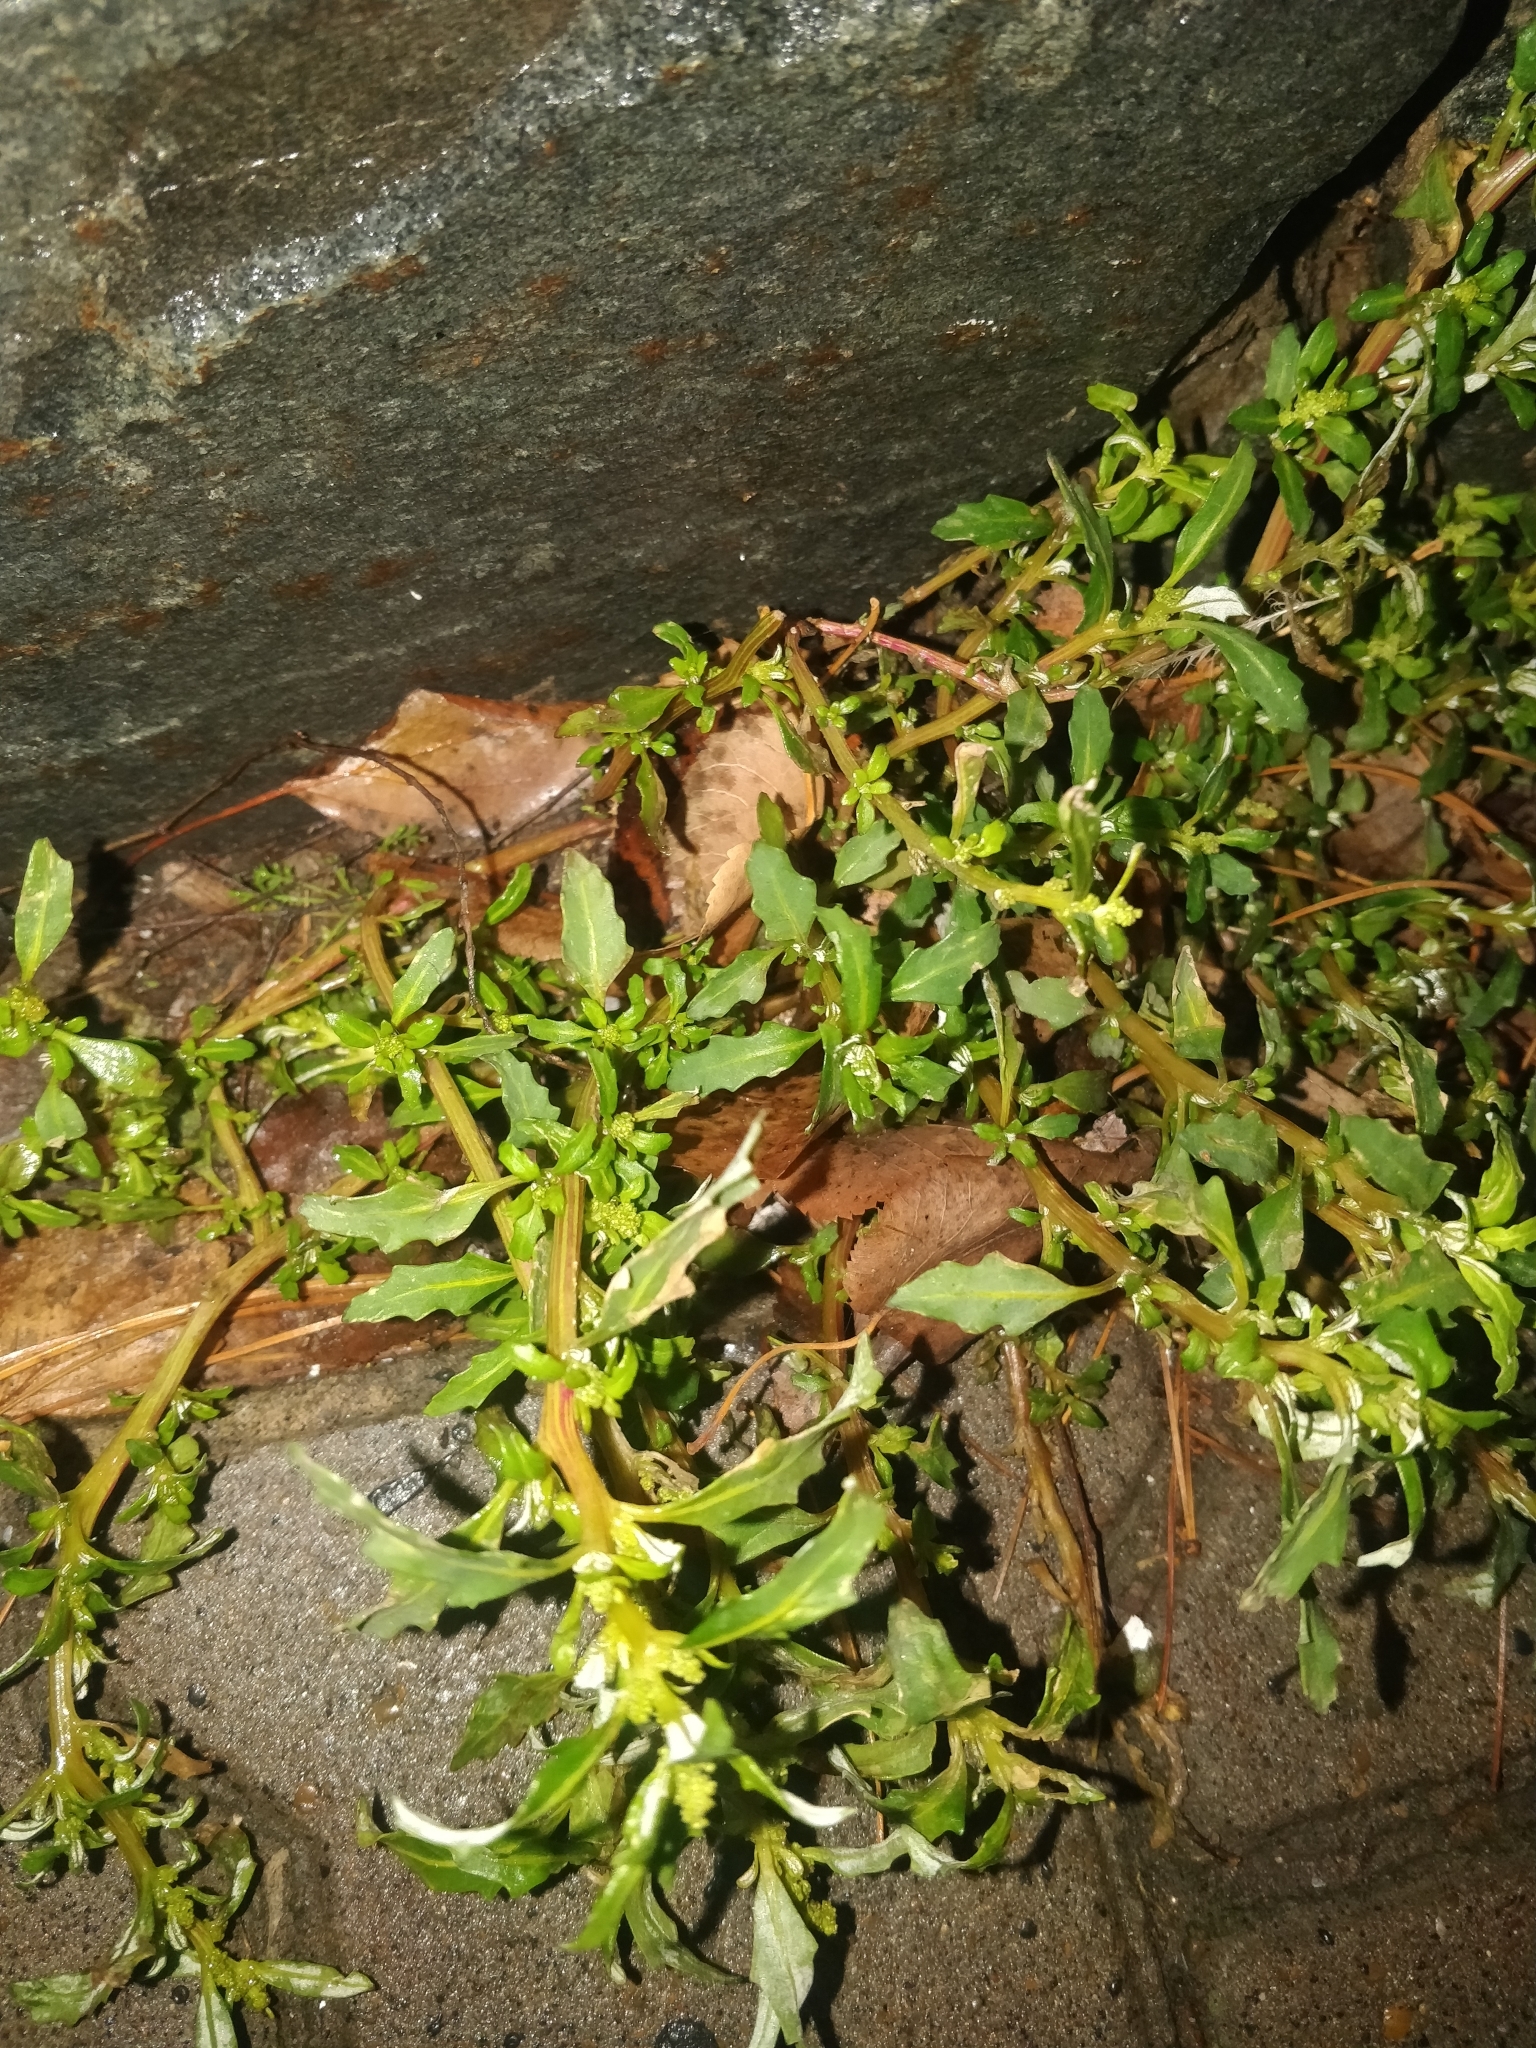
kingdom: Plantae
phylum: Tracheophyta
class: Magnoliopsida
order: Caryophyllales
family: Amaranthaceae
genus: Oxybasis
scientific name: Oxybasis glauca
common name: Glaucous goosefoot
